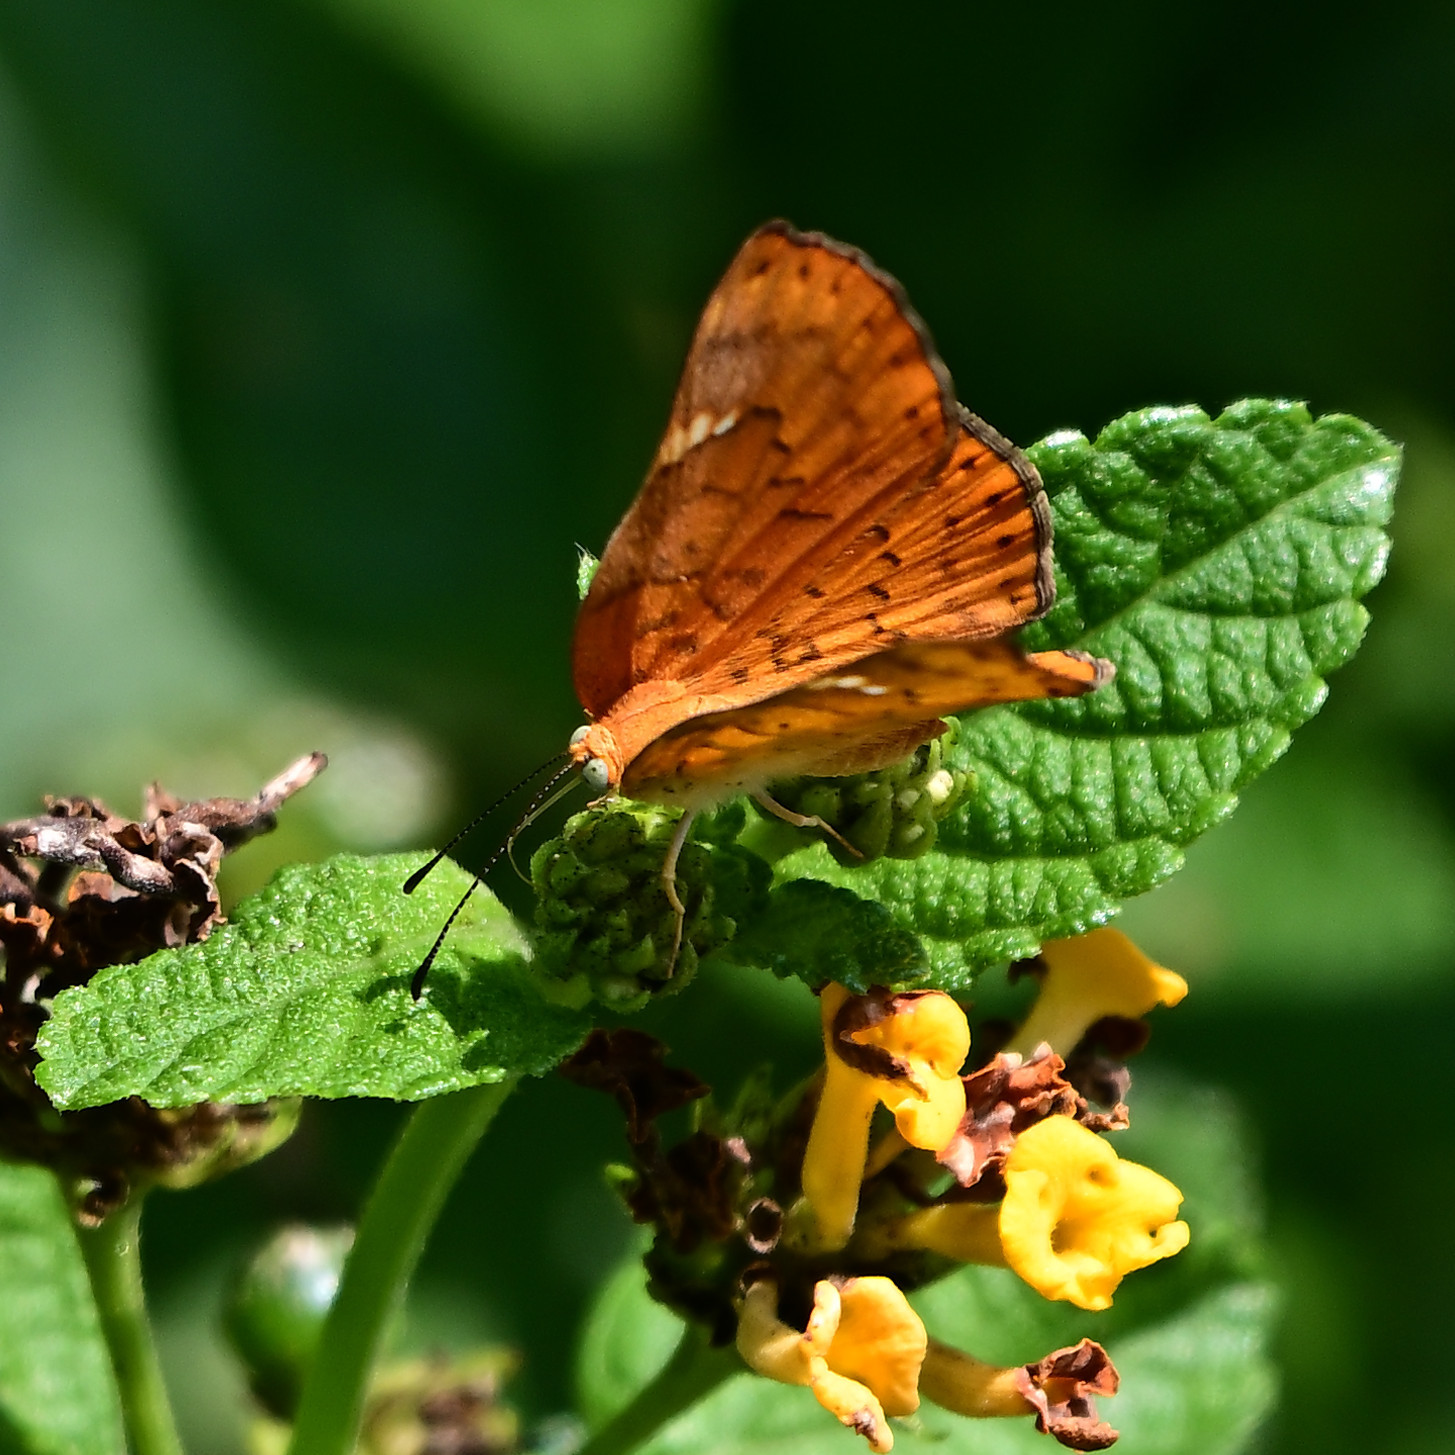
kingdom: Animalia
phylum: Arthropoda
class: Insecta
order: Lepidoptera
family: Riodinidae
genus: Curvie
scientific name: Curvie emesia
